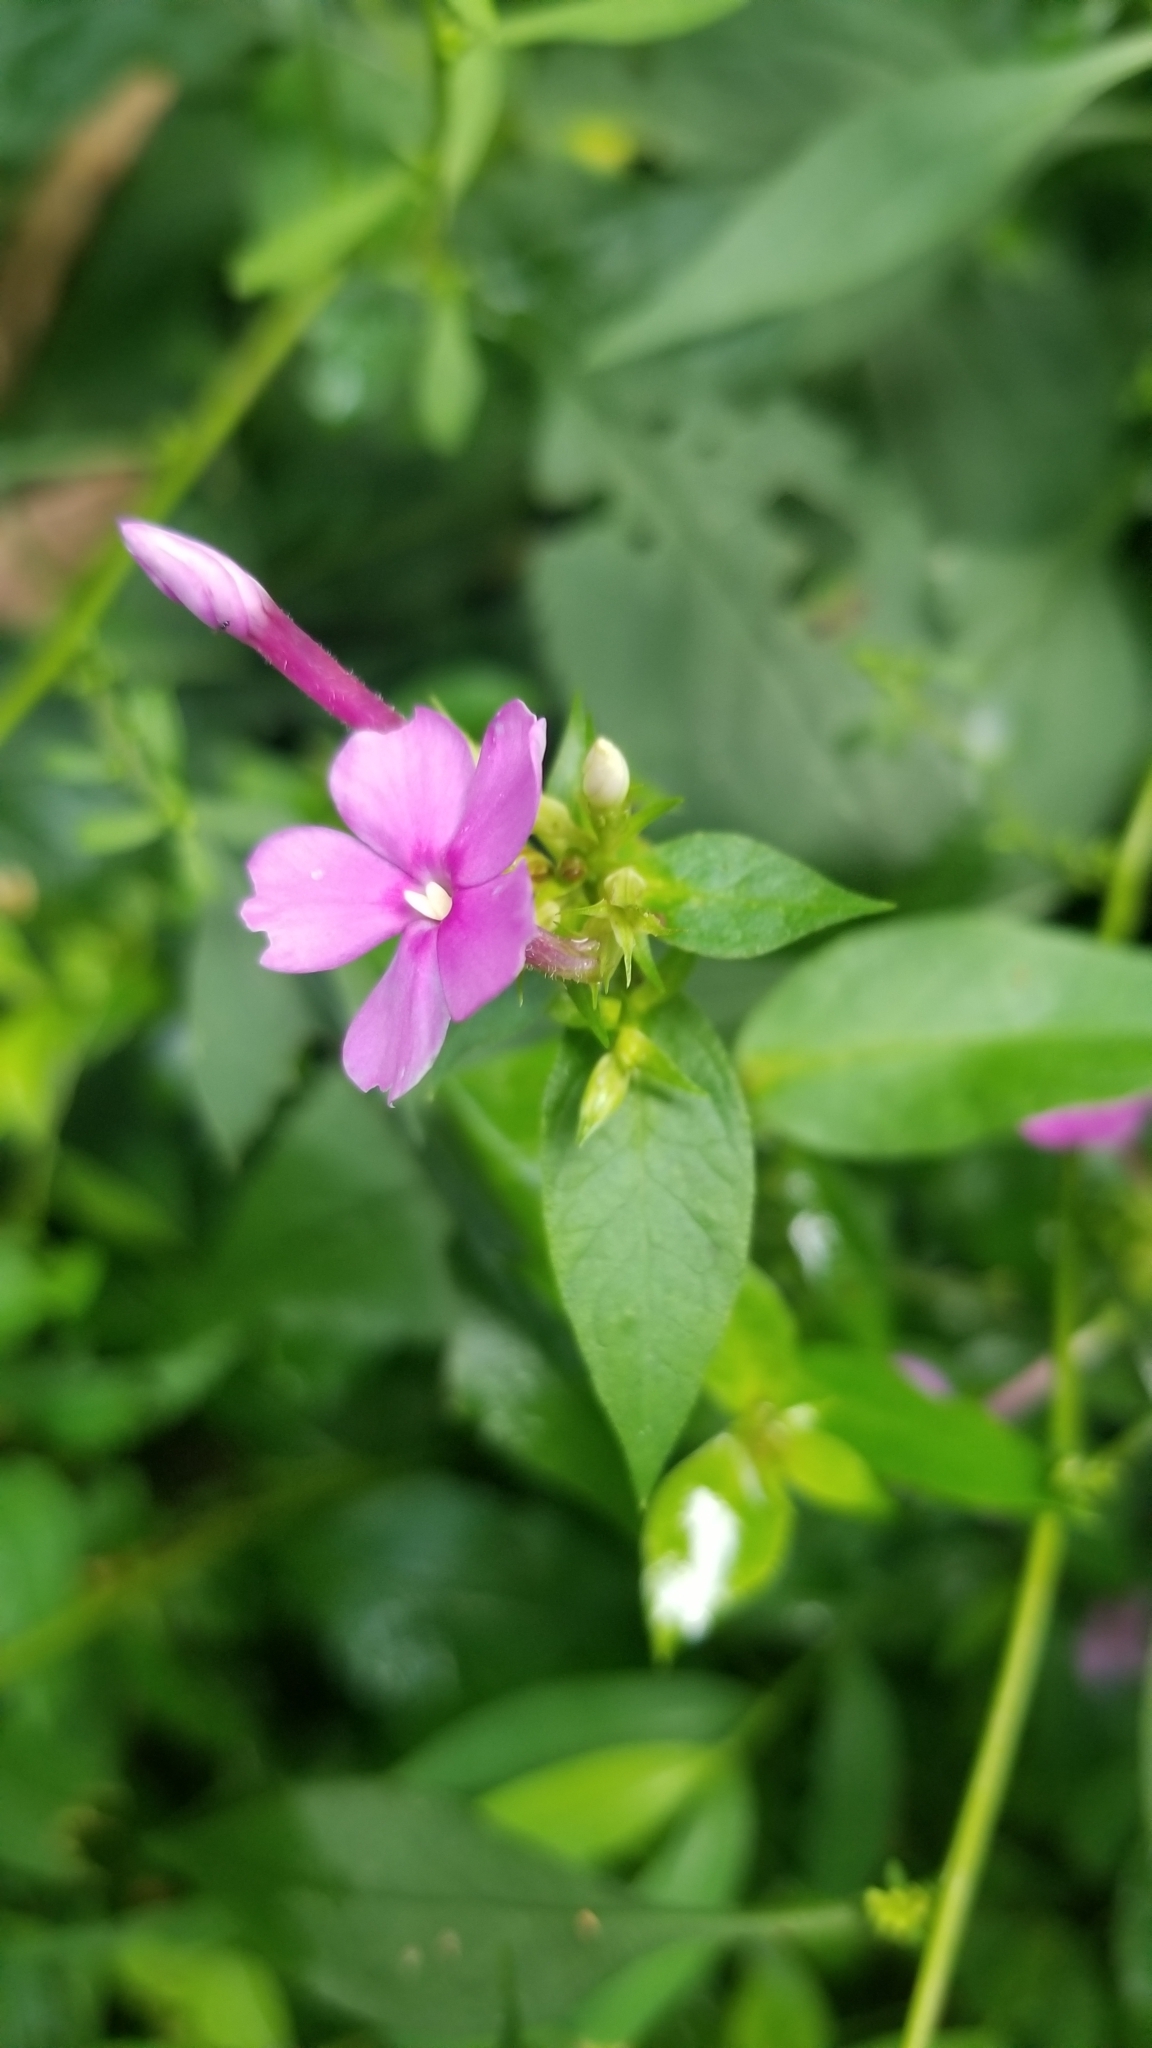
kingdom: Plantae
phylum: Tracheophyta
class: Magnoliopsida
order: Ericales
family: Polemoniaceae
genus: Phlox
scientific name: Phlox paniculata
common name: Fall phlox
